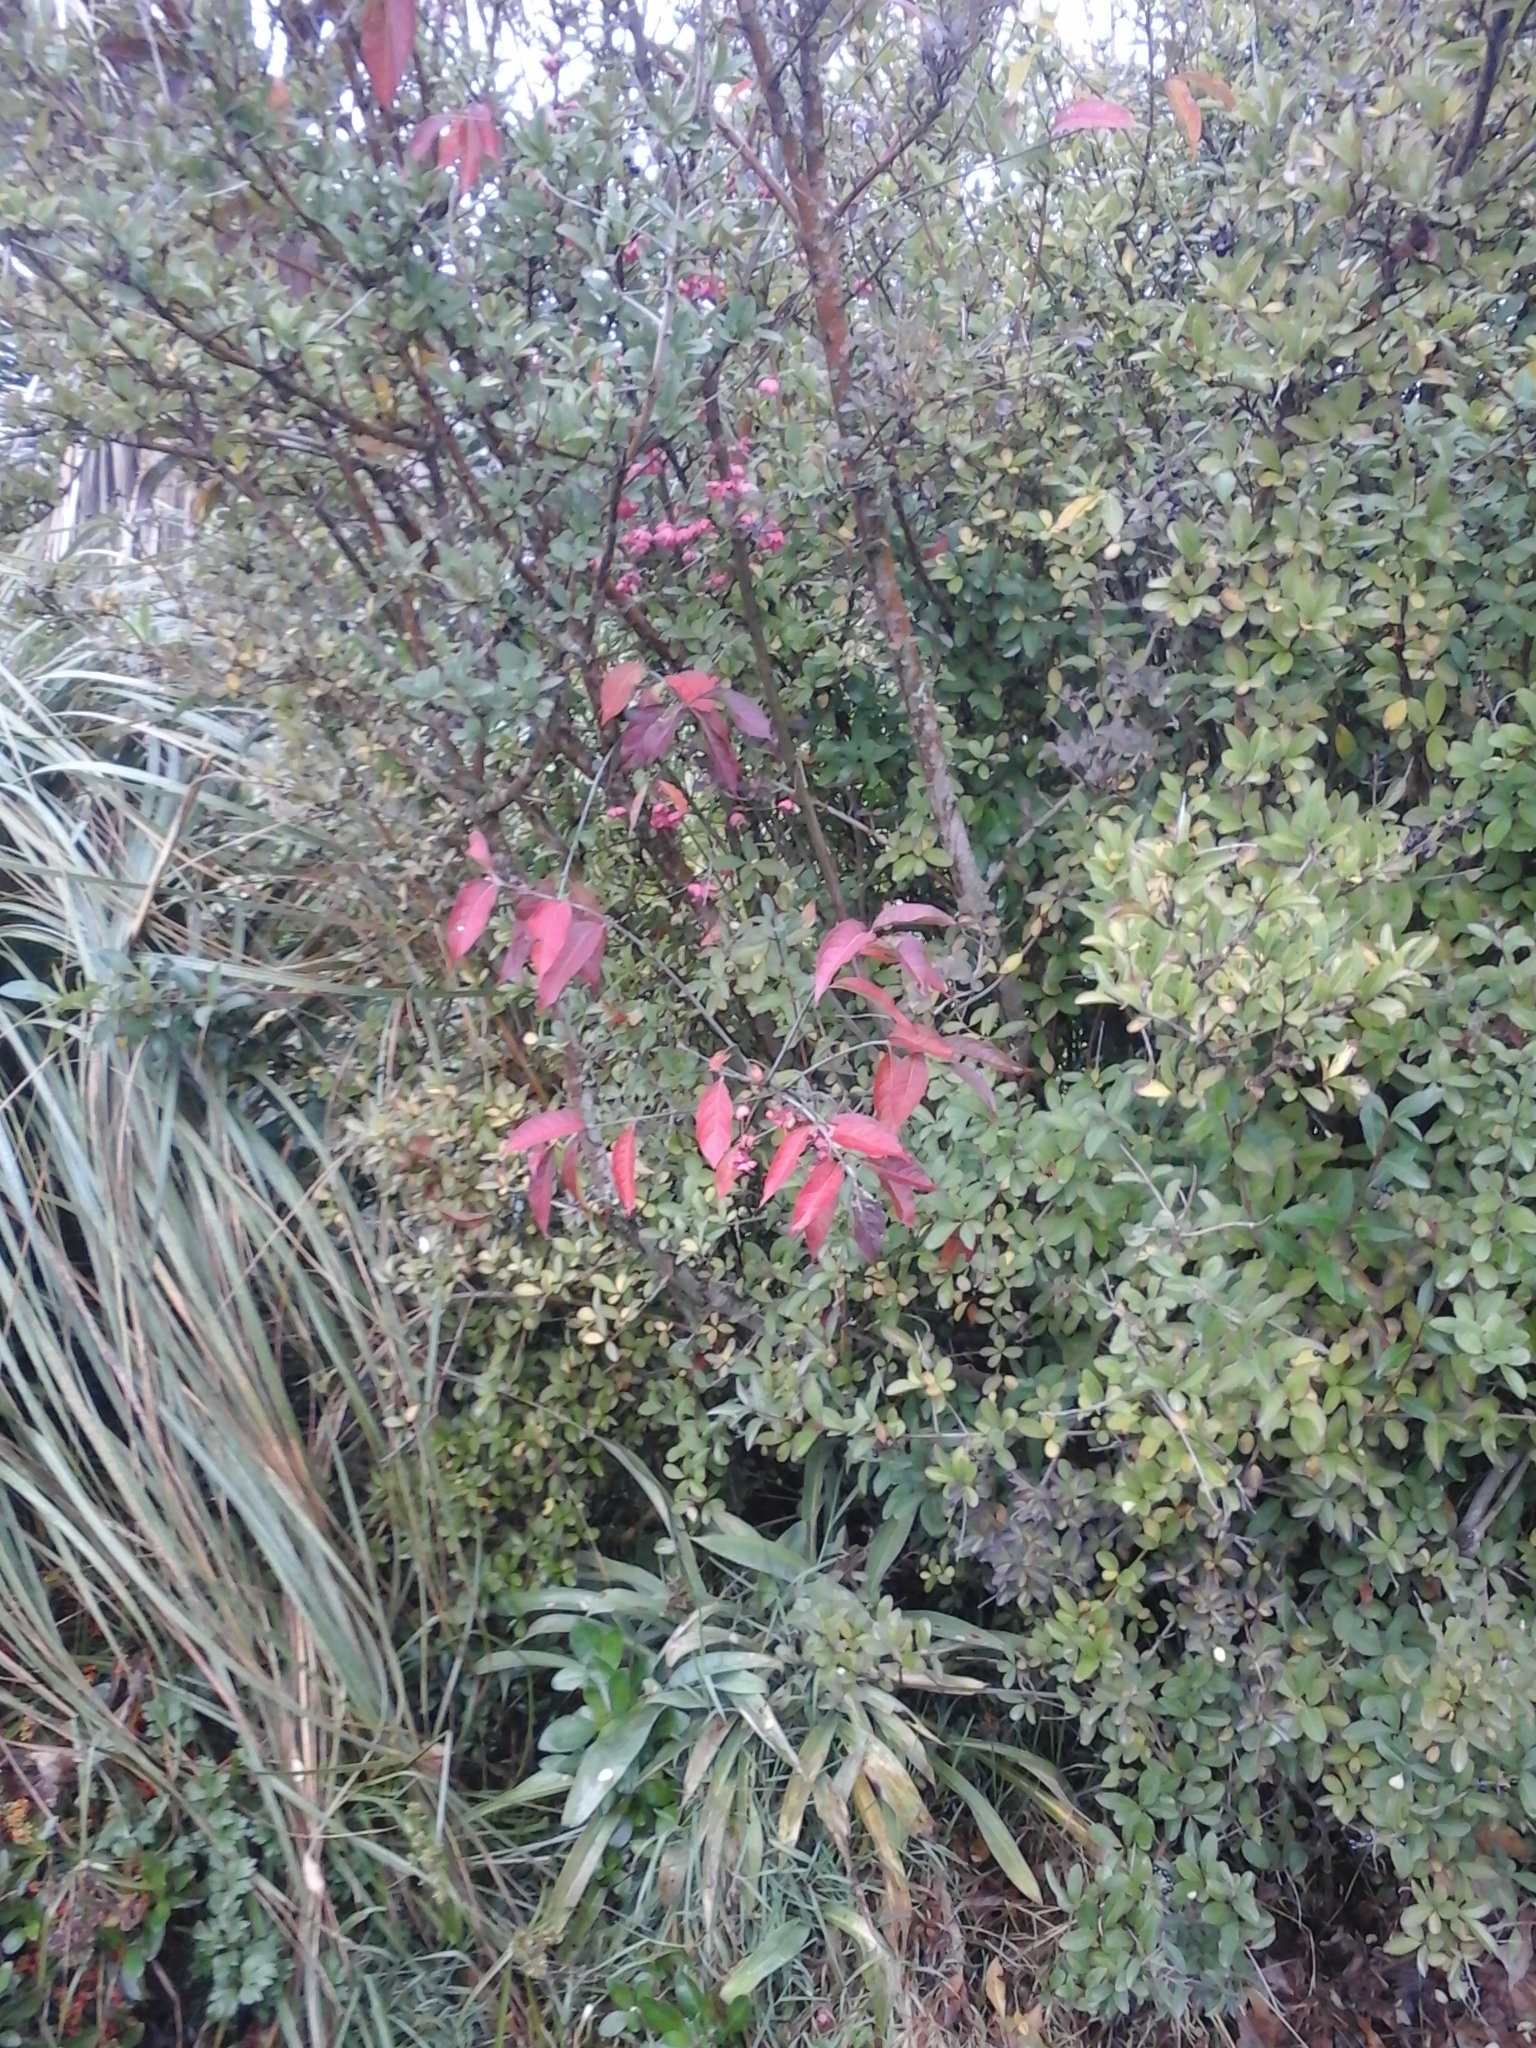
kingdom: Plantae
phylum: Tracheophyta
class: Magnoliopsida
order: Celastrales
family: Celastraceae
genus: Euonymus
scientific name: Euonymus europaeus
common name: Spindle
